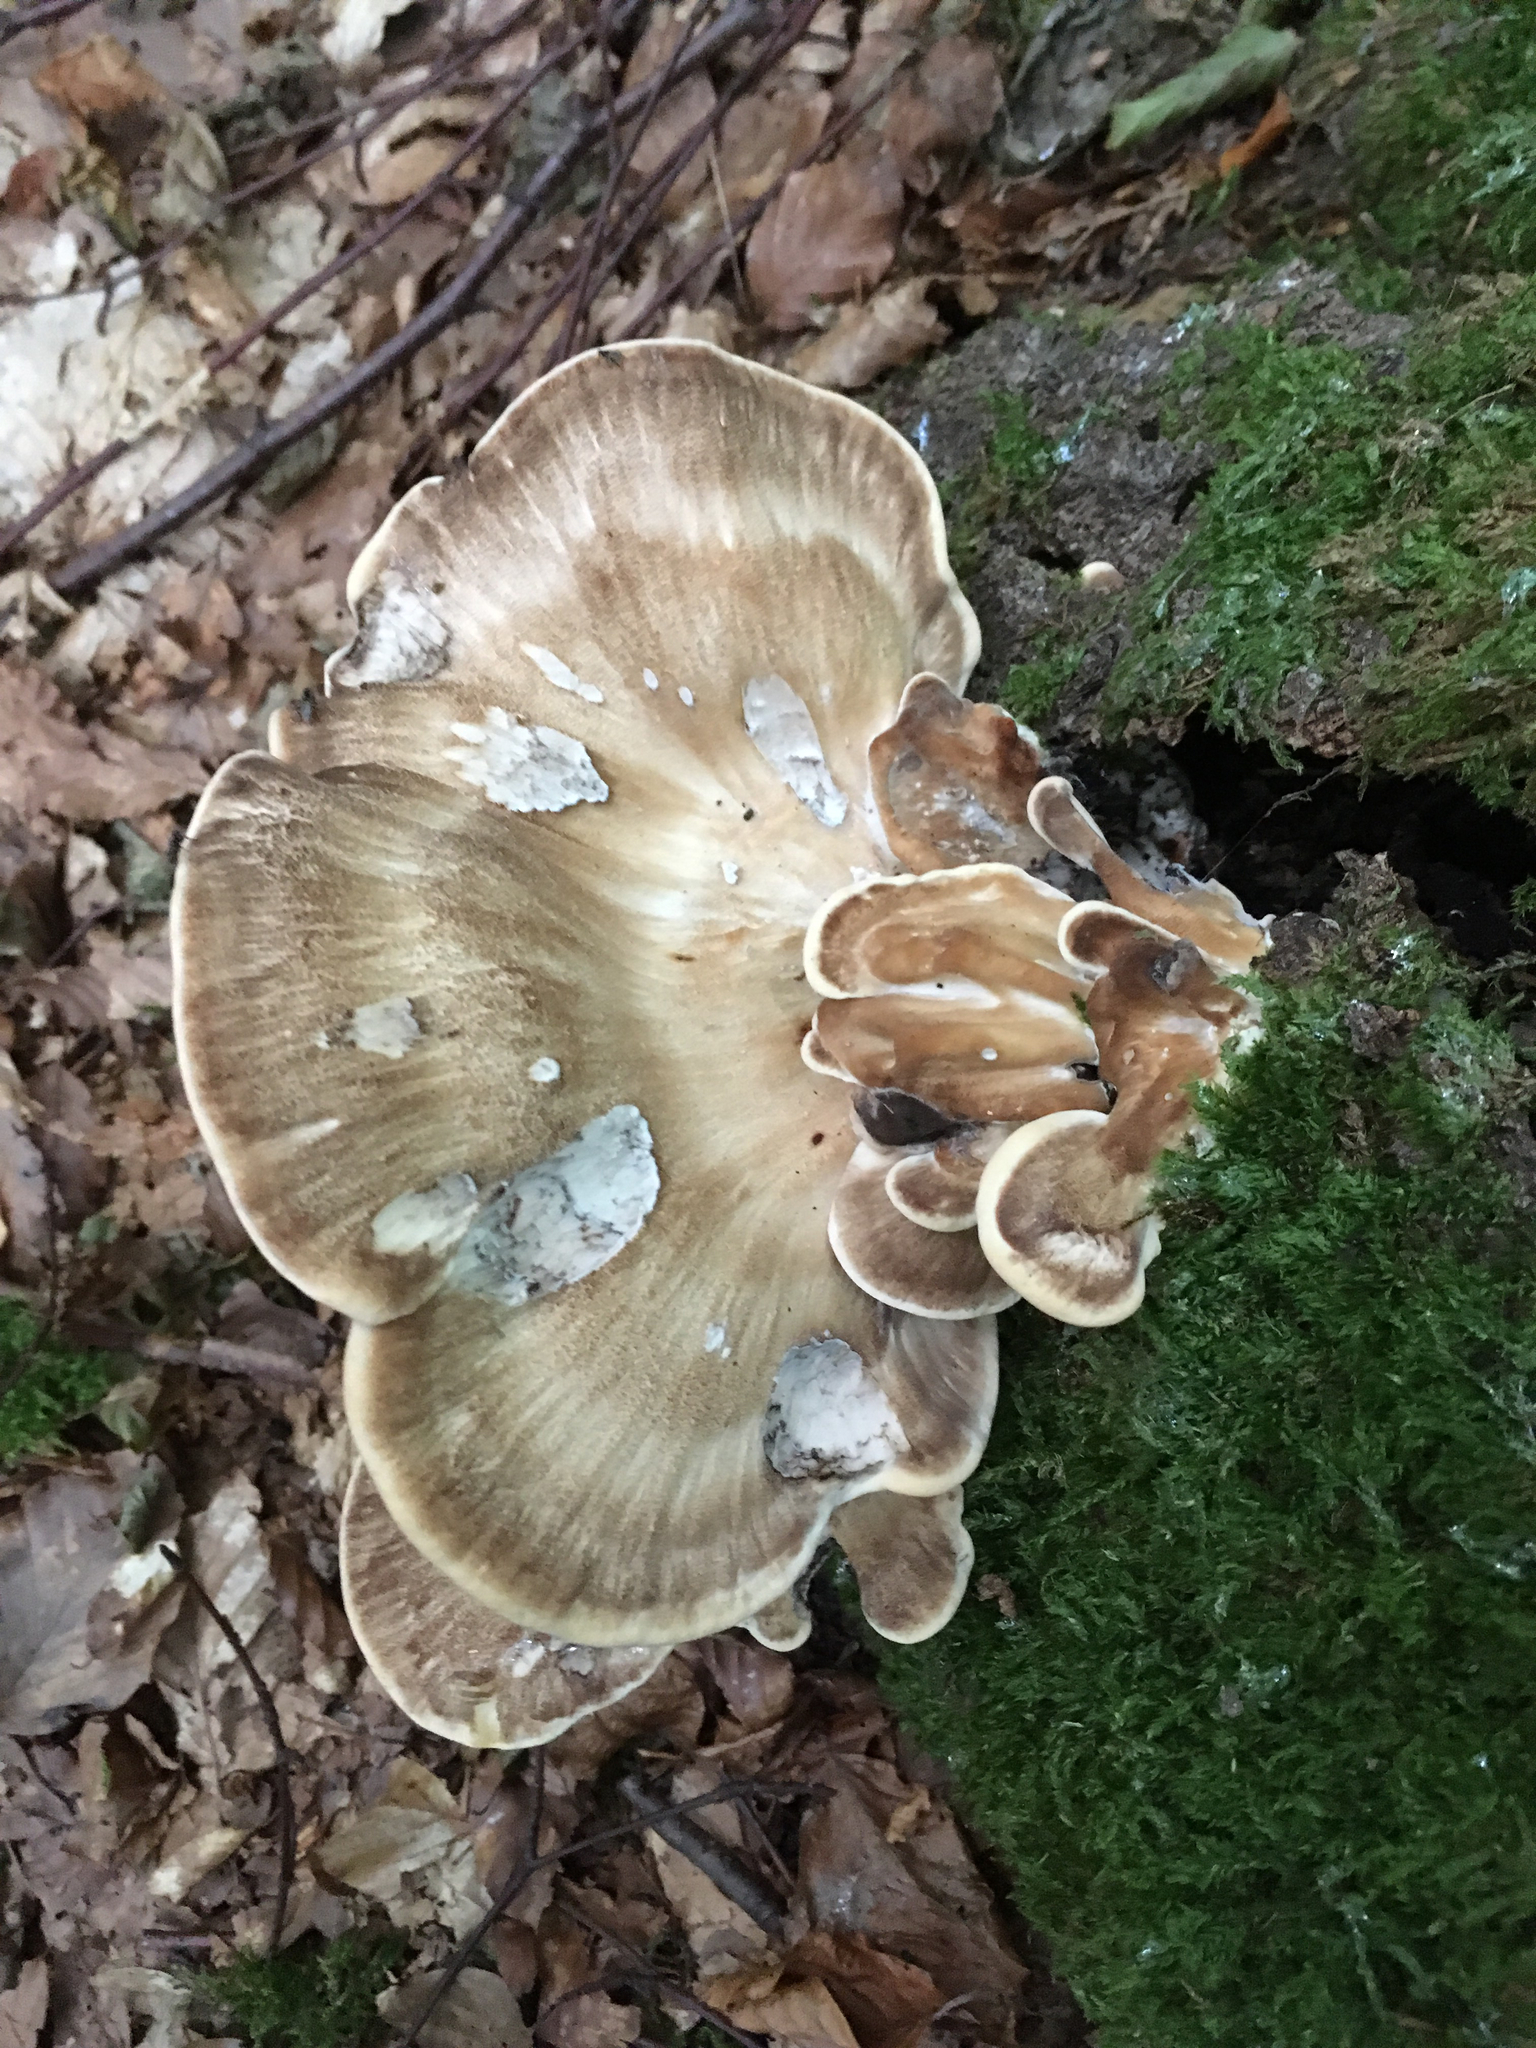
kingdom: Fungi
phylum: Basidiomycota
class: Agaricomycetes
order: Polyporales
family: Meripilaceae
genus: Meripilus
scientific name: Meripilus giganteus
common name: Giant polypore
